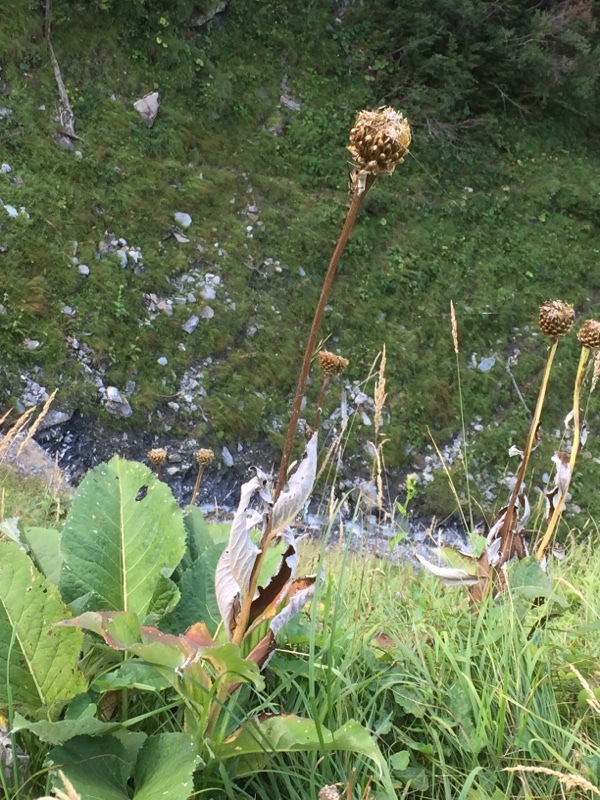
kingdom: Plantae
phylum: Tracheophyta
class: Magnoliopsida
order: Asterales
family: Asteraceae
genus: Leuzea
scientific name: Leuzea pusilla
